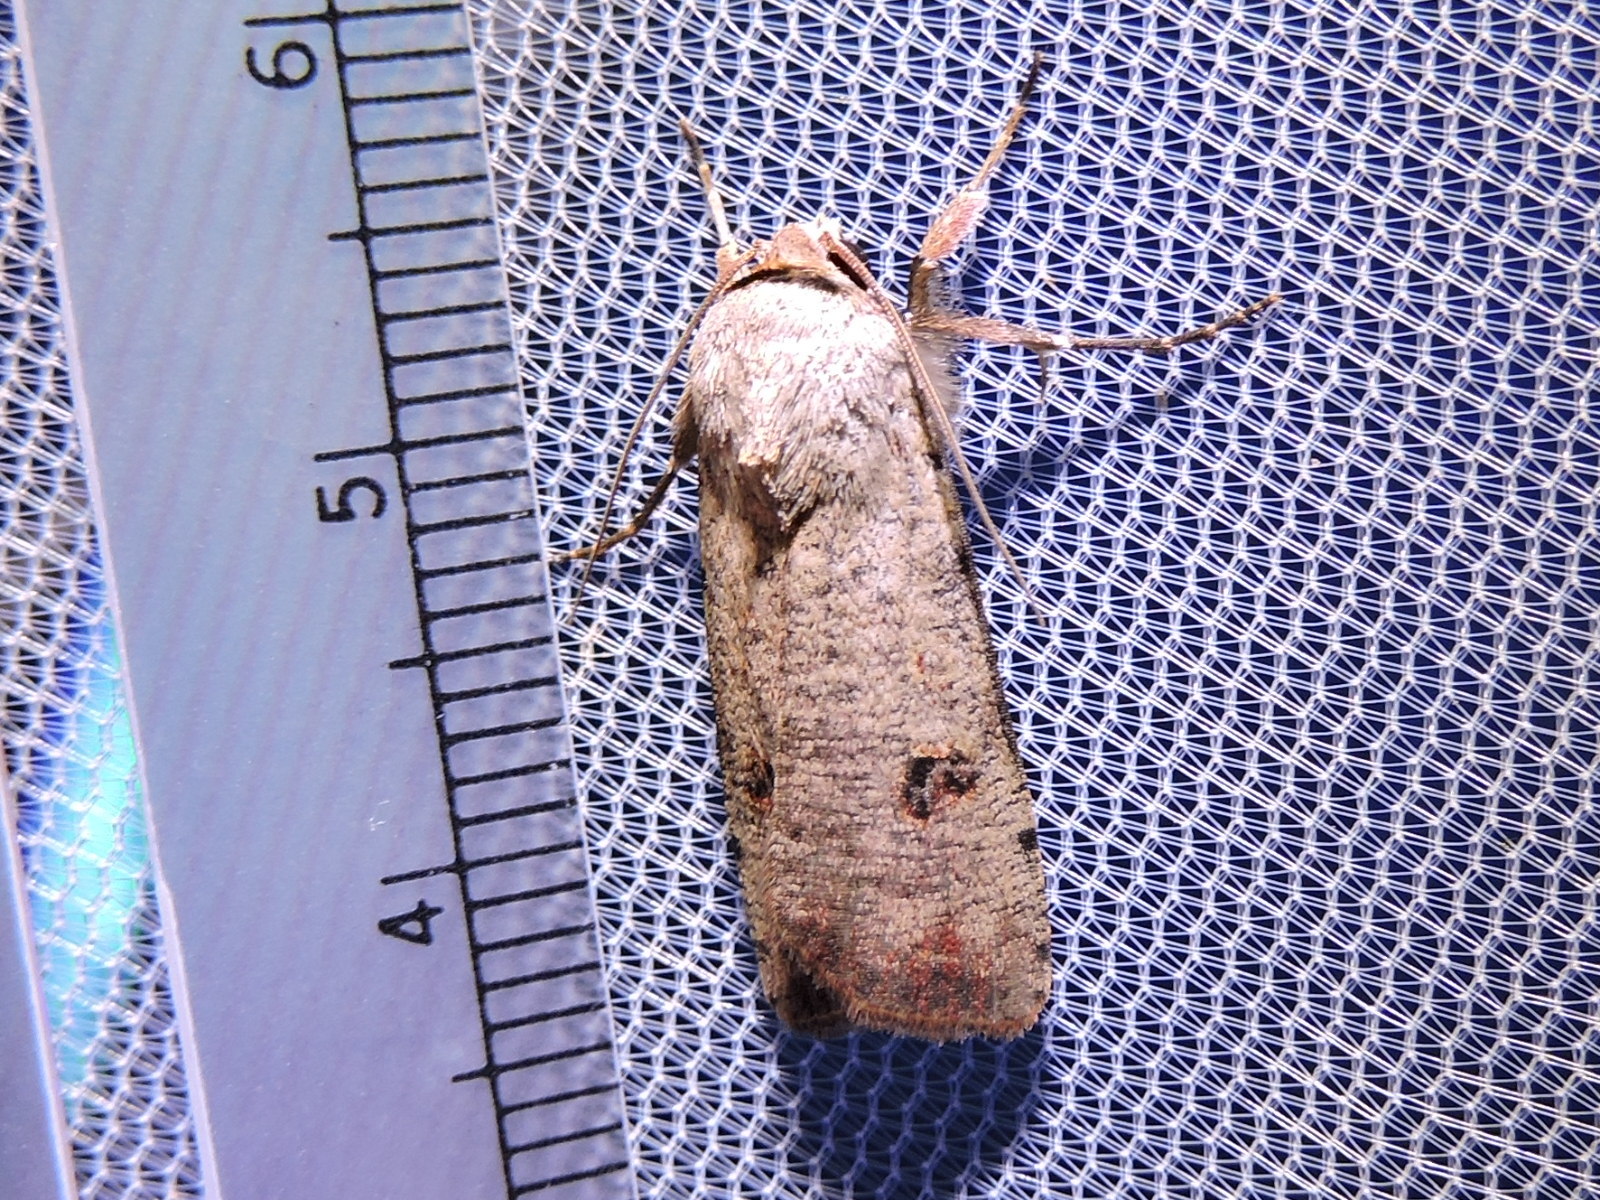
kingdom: Animalia
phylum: Arthropoda
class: Insecta
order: Lepidoptera
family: Noctuidae
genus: Anicla
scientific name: Anicla infecta
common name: Green cutworm
